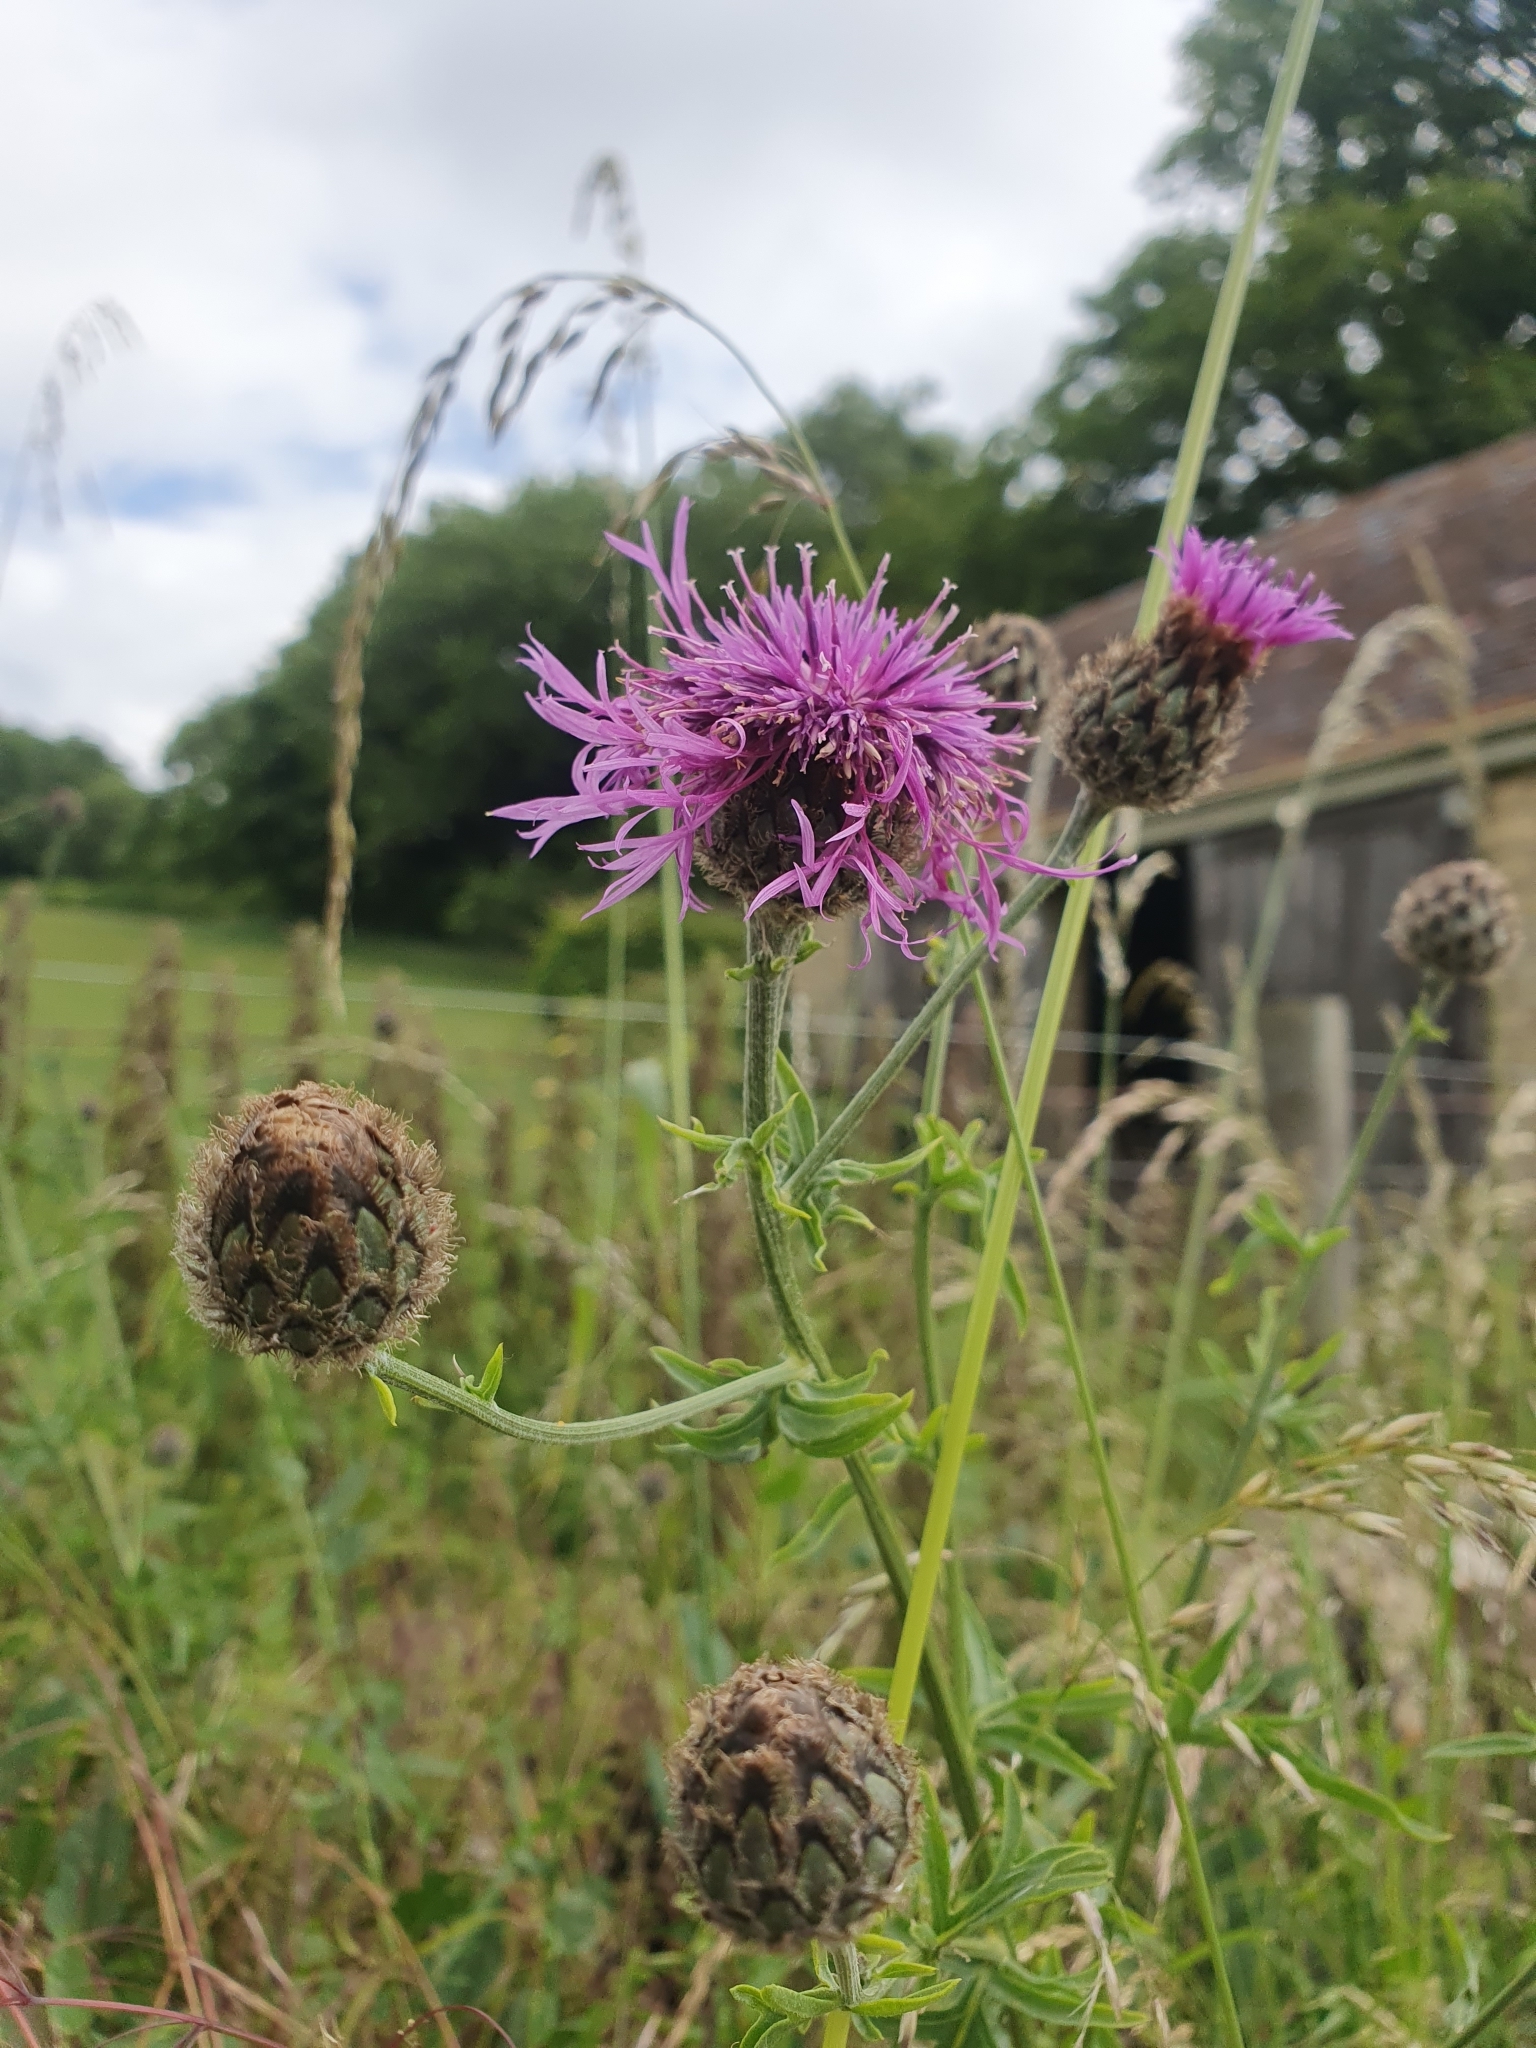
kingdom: Plantae
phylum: Tracheophyta
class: Magnoliopsida
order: Asterales
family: Asteraceae
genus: Centaurea
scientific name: Centaurea scabiosa
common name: Greater knapweed
